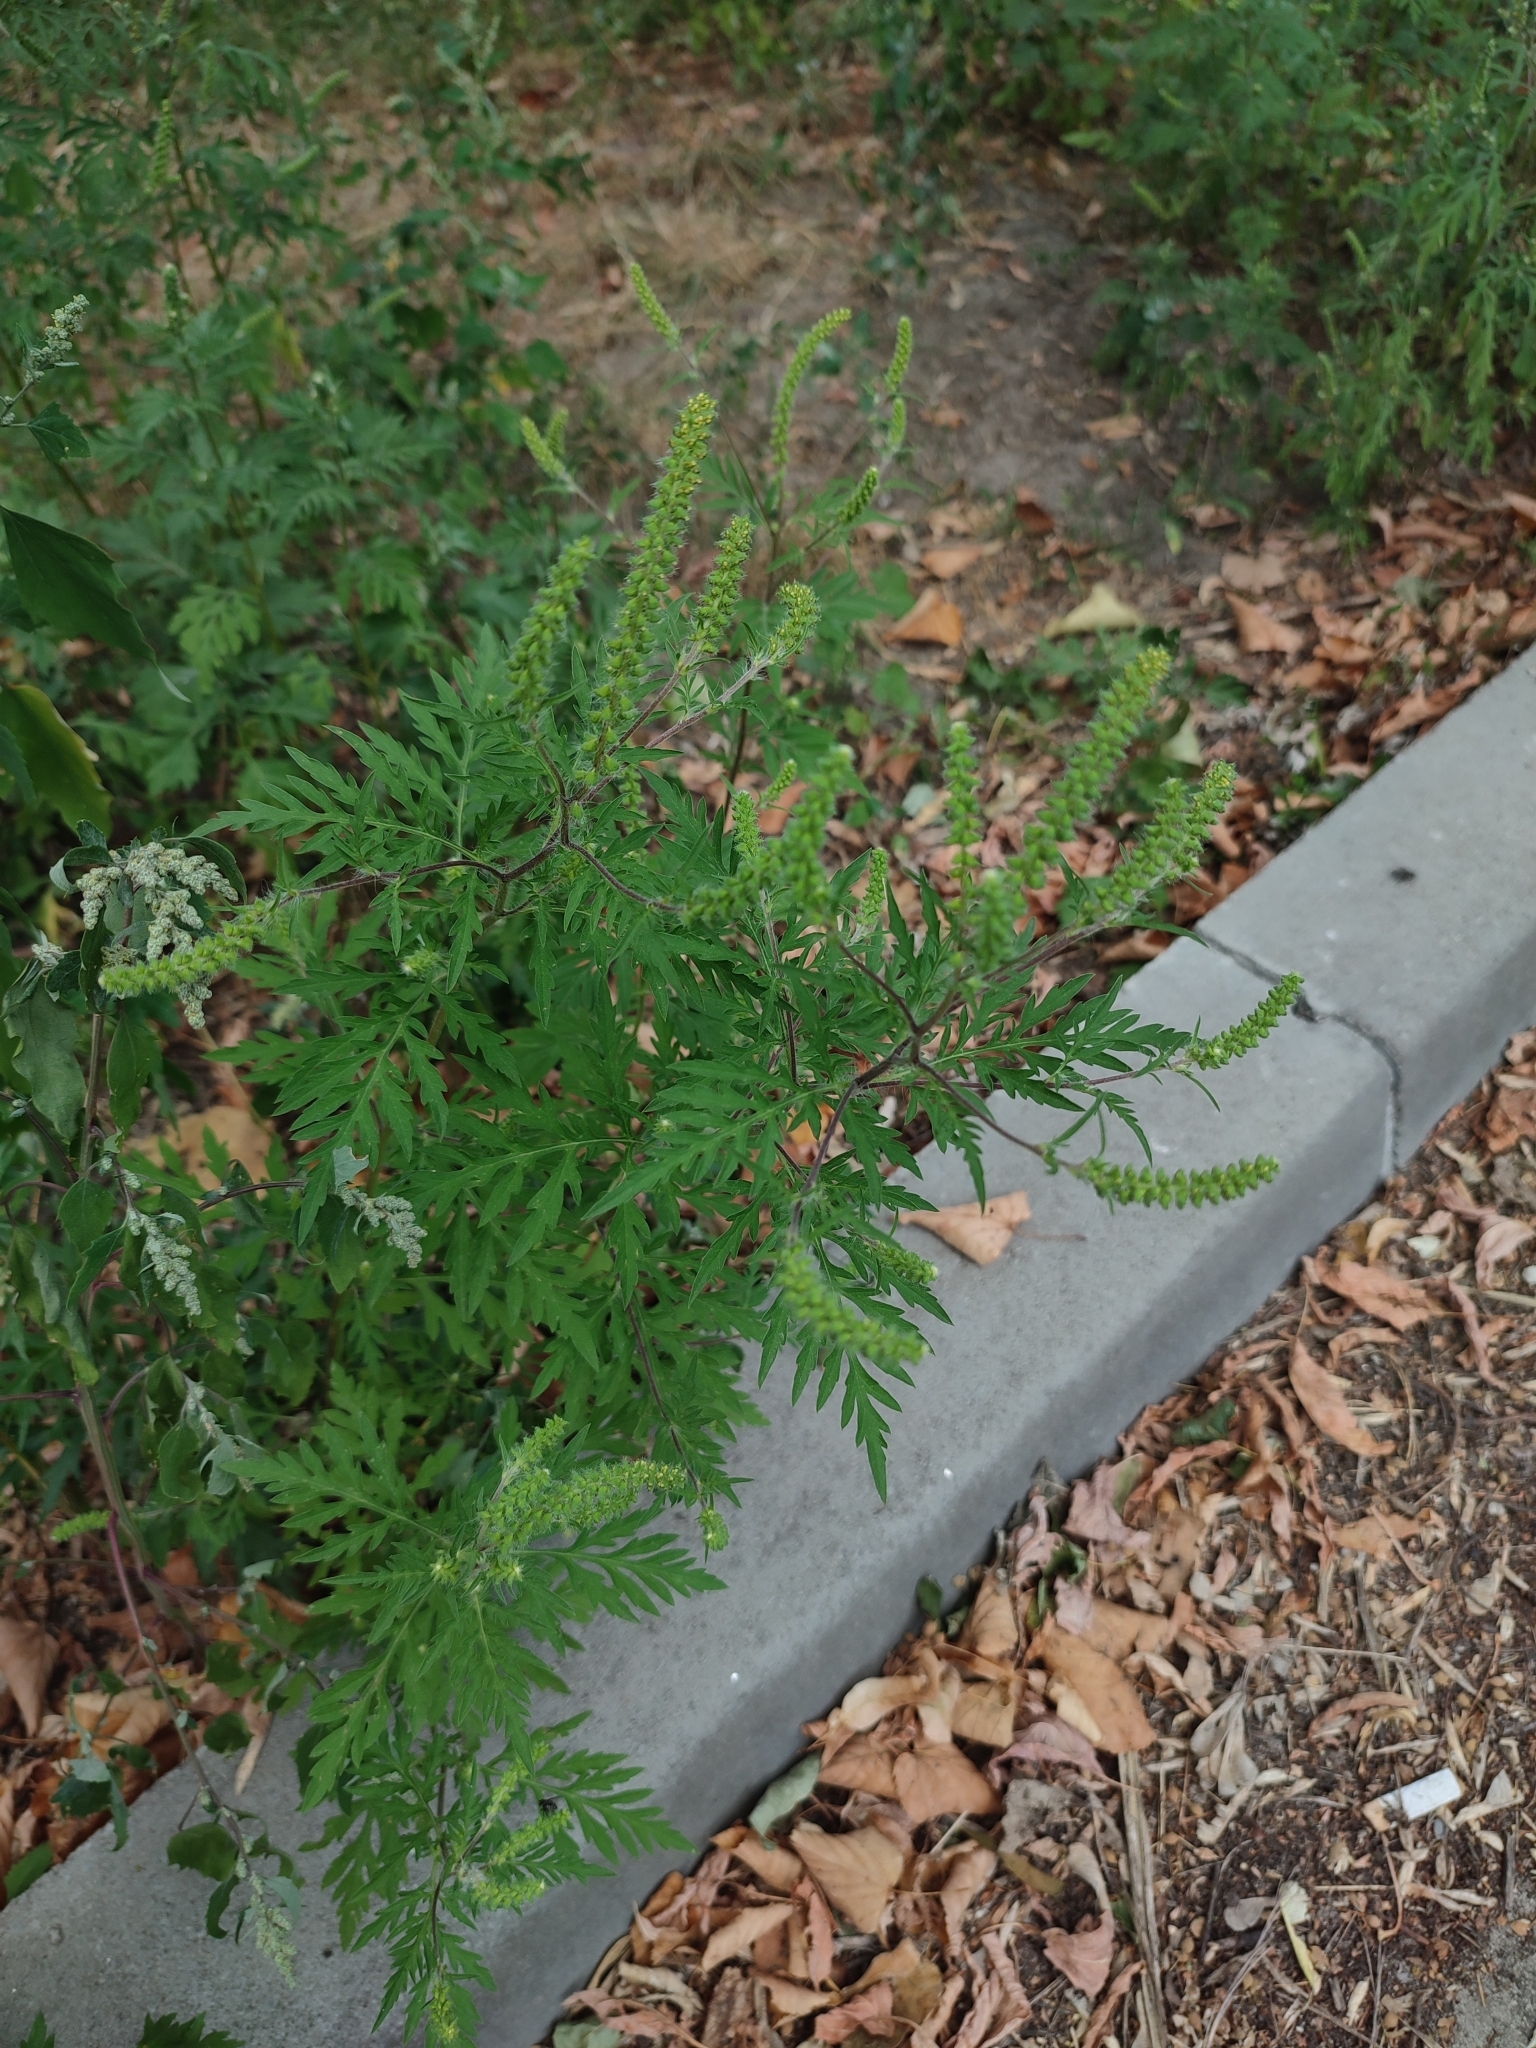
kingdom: Plantae
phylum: Tracheophyta
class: Magnoliopsida
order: Asterales
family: Asteraceae
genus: Ambrosia
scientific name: Ambrosia artemisiifolia
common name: Annual ragweed
